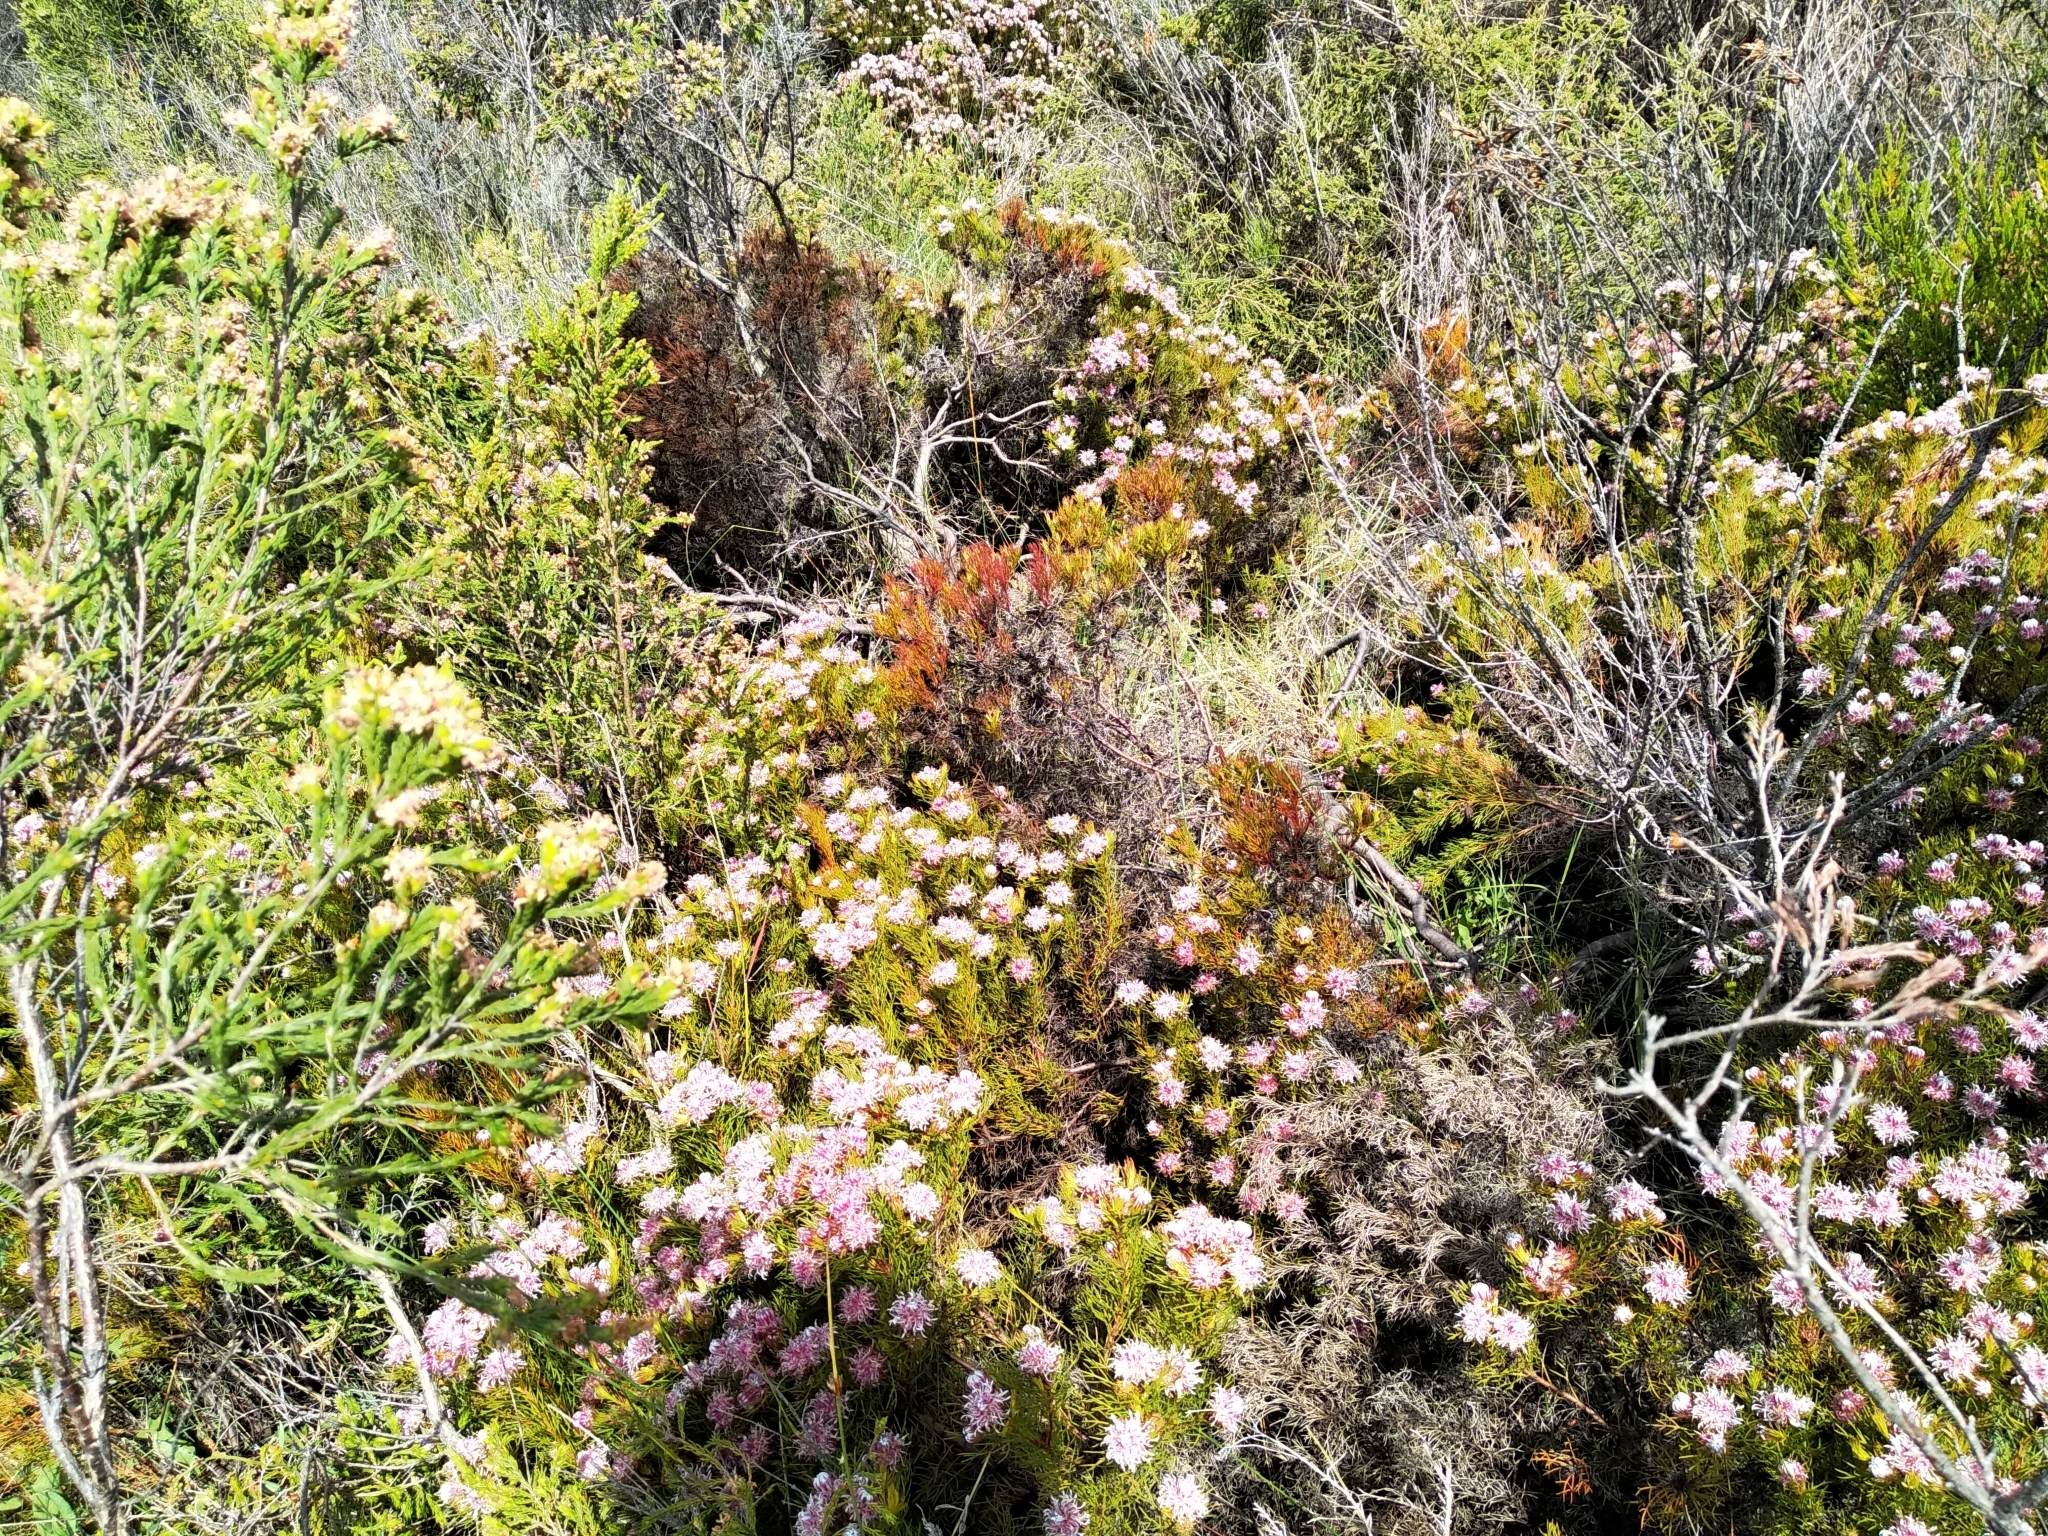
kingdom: Plantae
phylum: Tracheophyta
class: Magnoliopsida
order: Proteales
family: Proteaceae
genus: Serruria
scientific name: Serruria aemula
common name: Strawberry spiderhead
